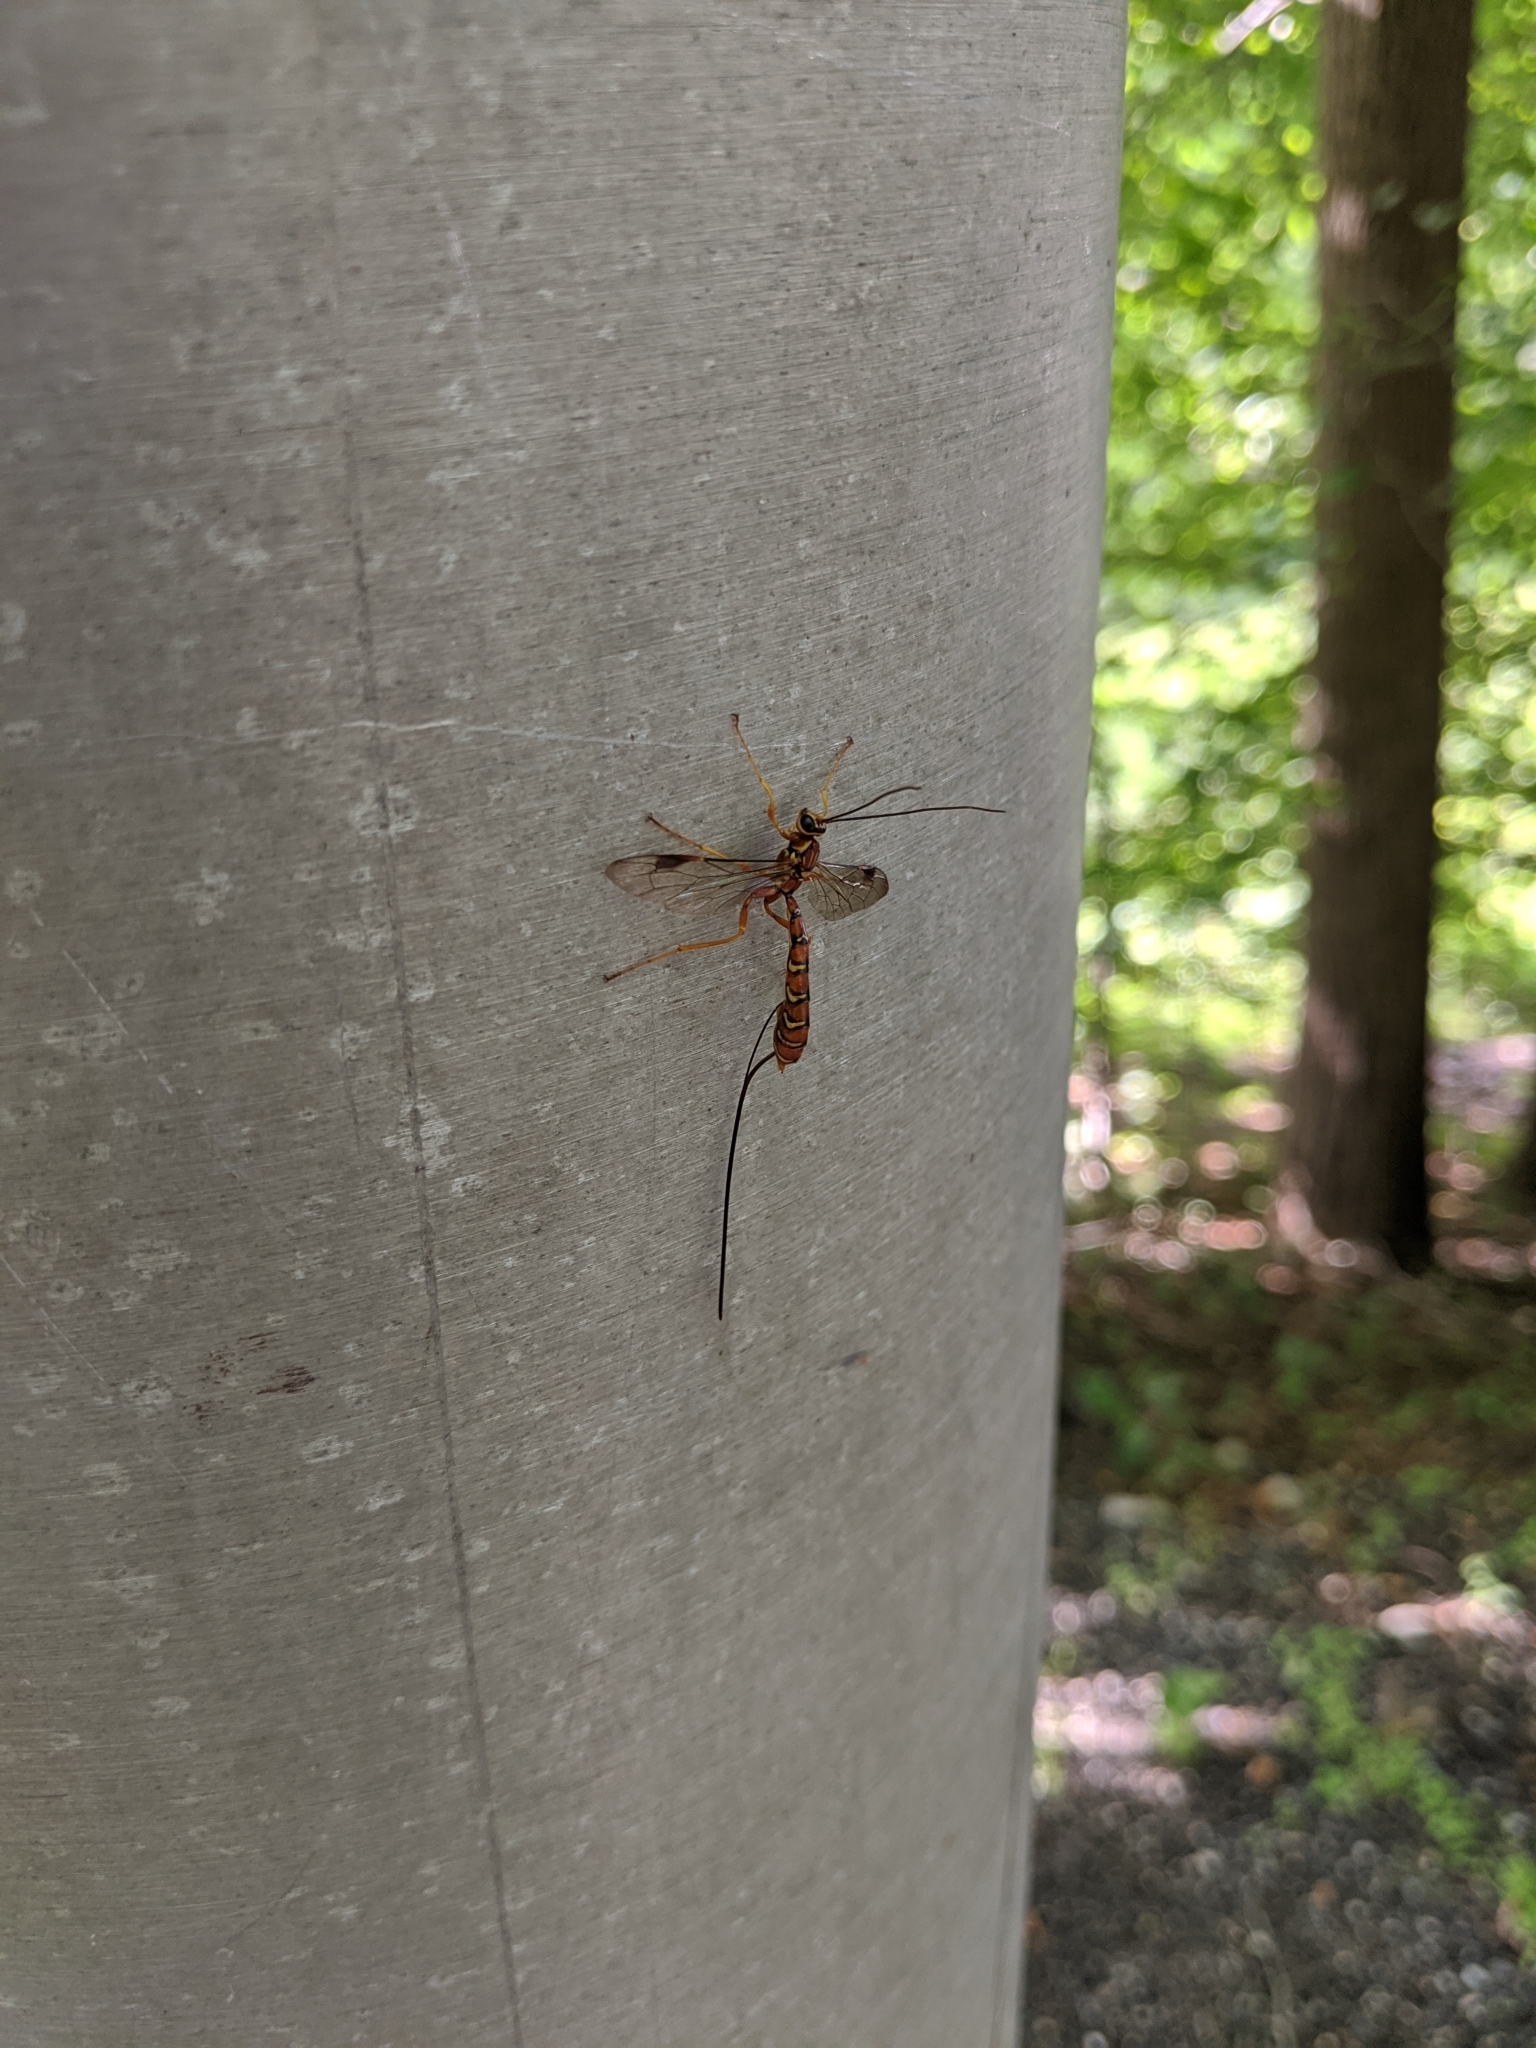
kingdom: Animalia
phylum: Arthropoda
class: Insecta
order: Hymenoptera
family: Ichneumonidae
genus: Megarhyssa
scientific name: Megarhyssa greenei
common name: Greene's giant ichneumonid wasp
